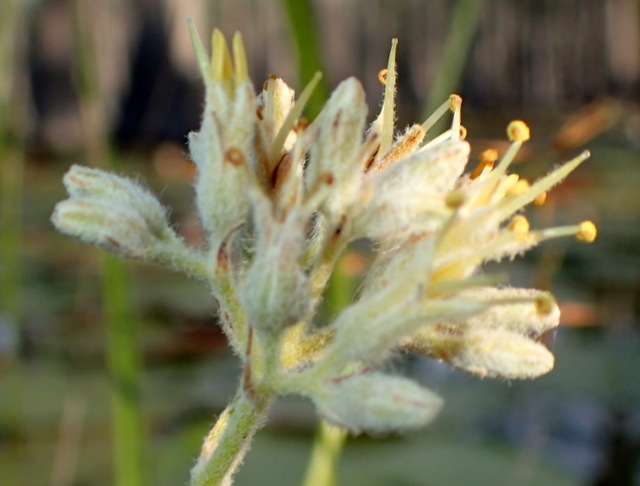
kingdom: Plantae
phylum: Tracheophyta
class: Liliopsida
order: Commelinales
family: Haemodoraceae
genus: Lachnanthes
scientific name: Lachnanthes caroliana
